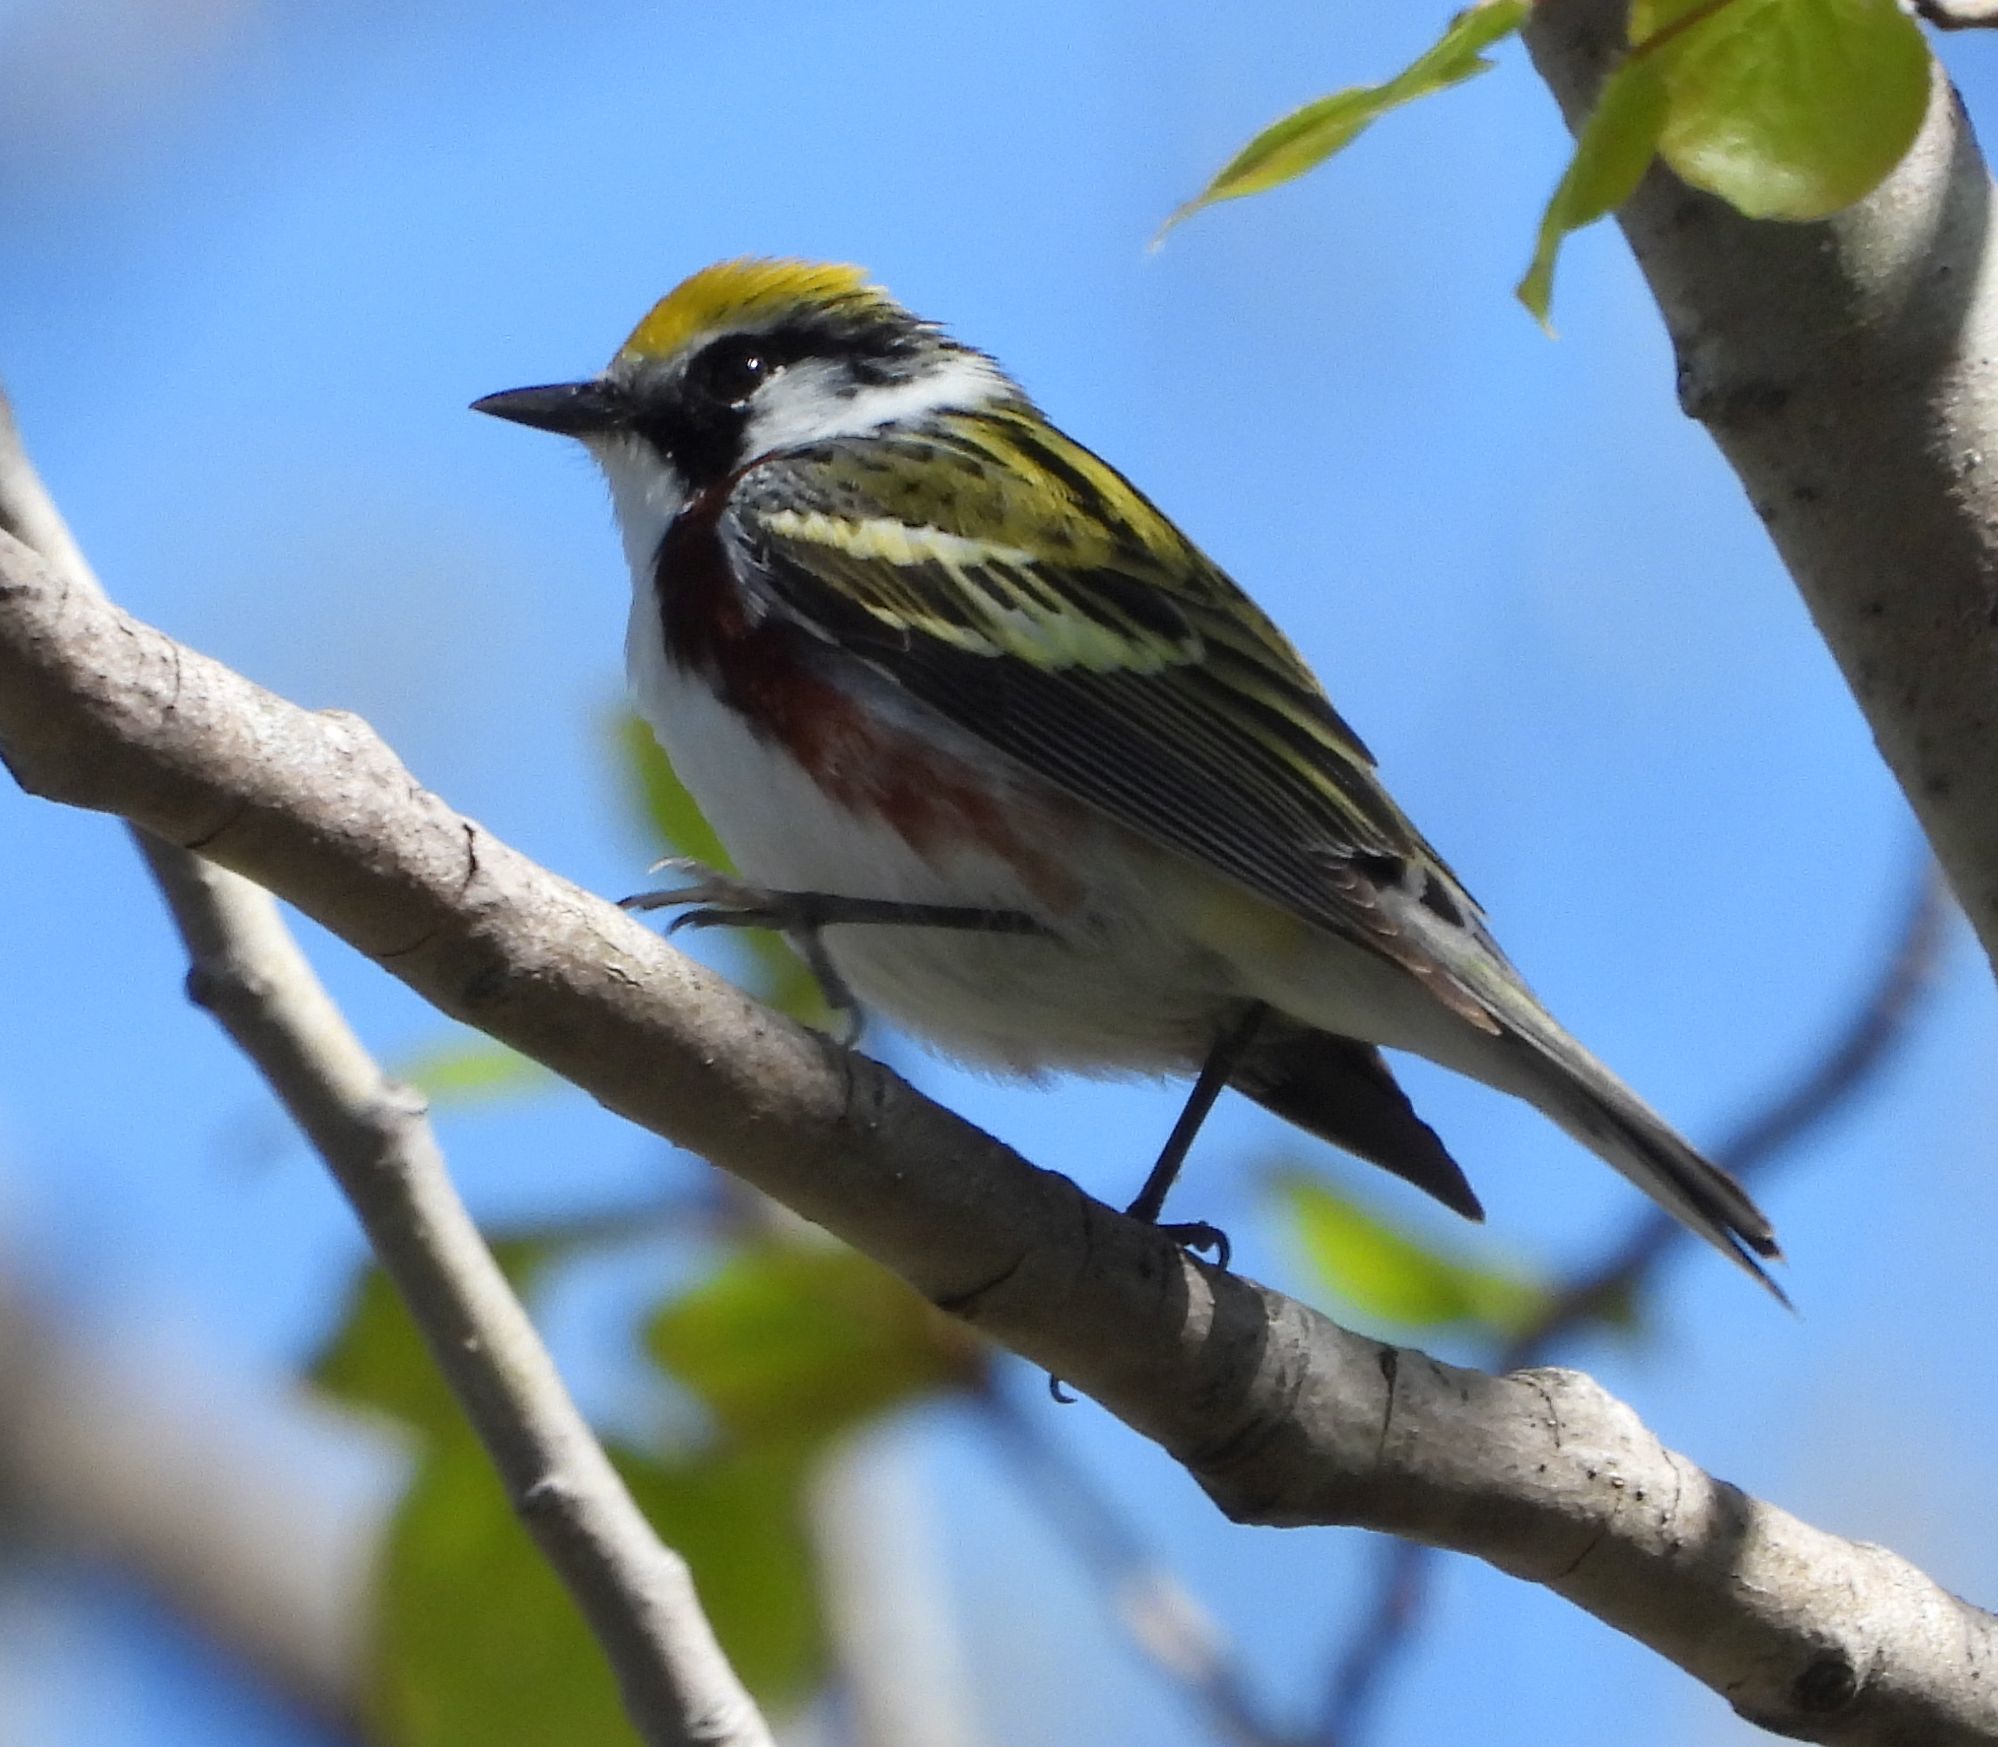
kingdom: Animalia
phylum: Chordata
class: Aves
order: Passeriformes
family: Parulidae
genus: Setophaga
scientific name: Setophaga pensylvanica
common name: Chestnut-sided warbler
